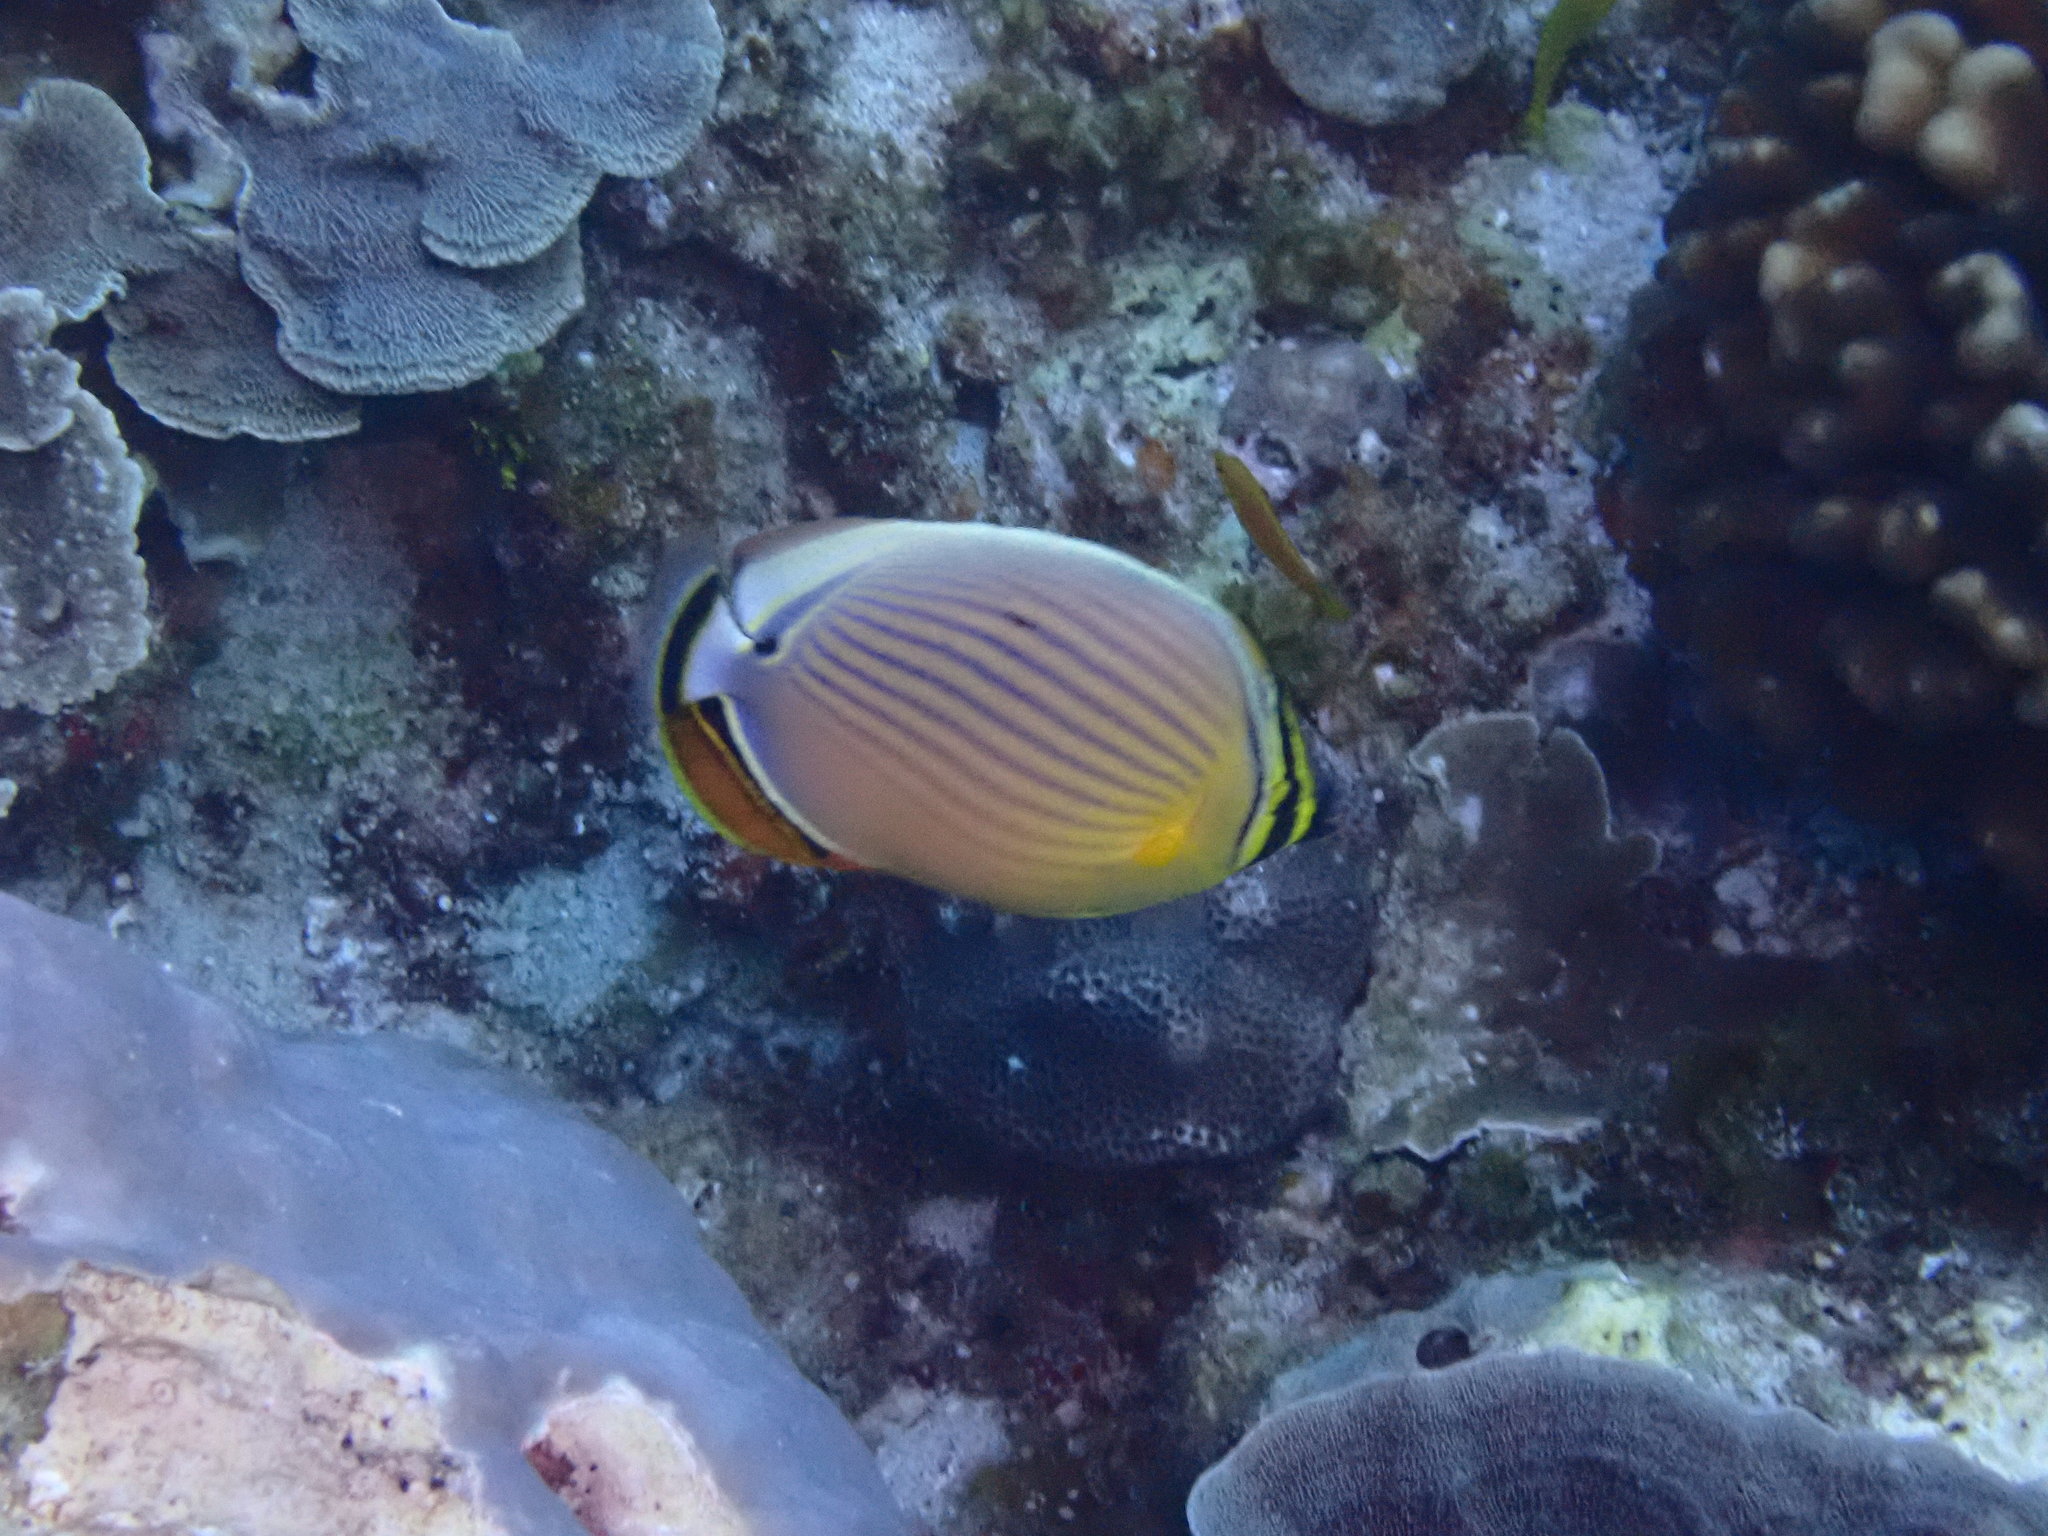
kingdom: Animalia
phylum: Chordata
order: Perciformes
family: Chaetodontidae
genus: Chaetodon
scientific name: Chaetodon lunulatus
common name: Redfin butterflyfish
